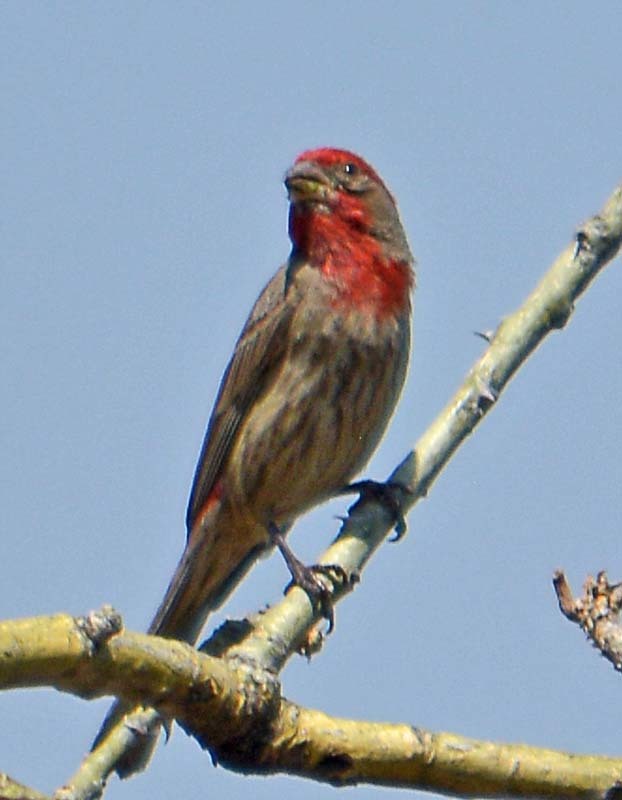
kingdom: Animalia
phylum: Chordata
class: Aves
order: Passeriformes
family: Fringillidae
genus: Haemorhous
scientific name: Haemorhous mexicanus
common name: House finch
